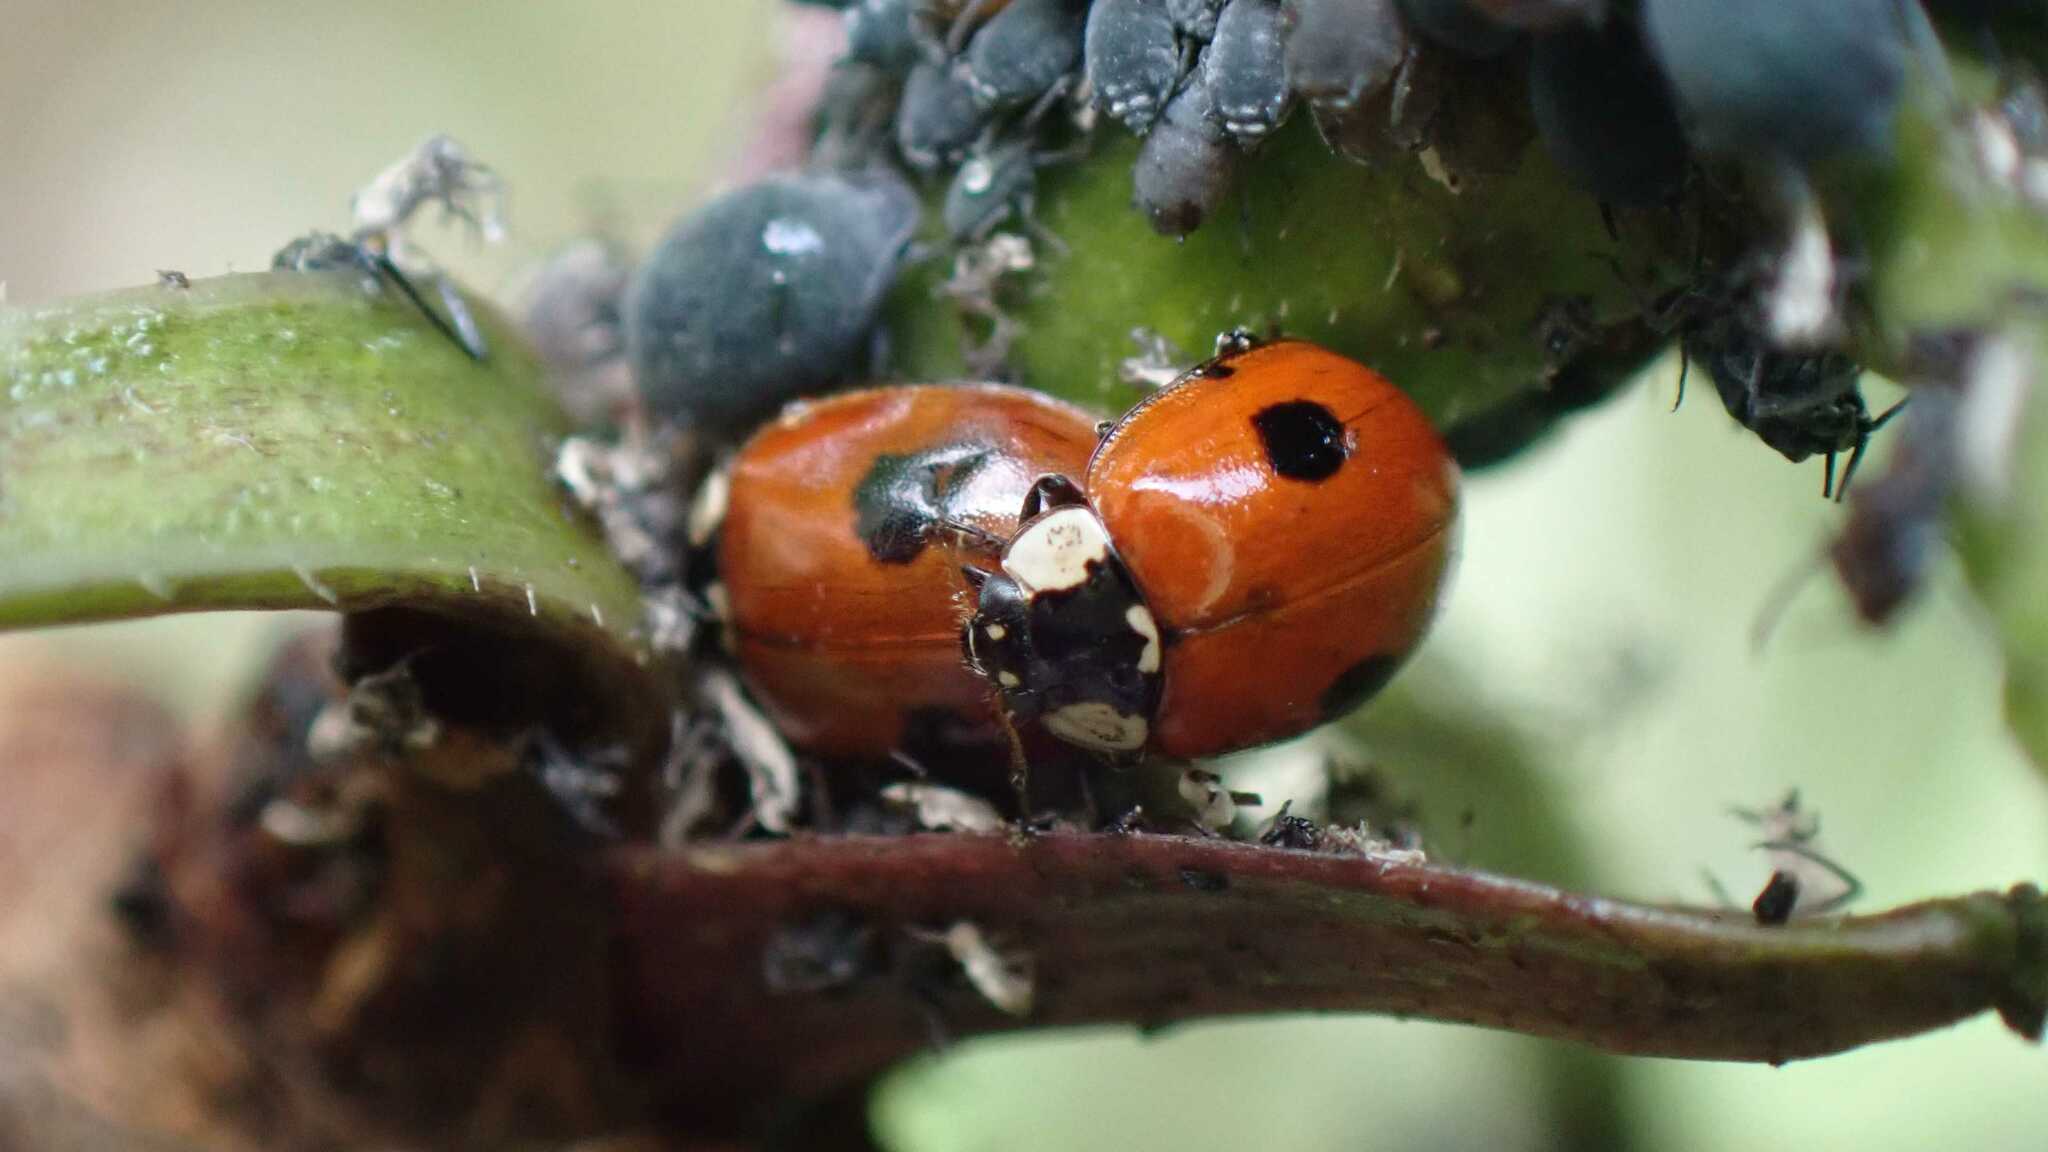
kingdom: Animalia
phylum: Arthropoda
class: Insecta
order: Coleoptera
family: Coccinellidae
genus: Adalia
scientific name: Adalia bipunctata
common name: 2-spot ladybird
